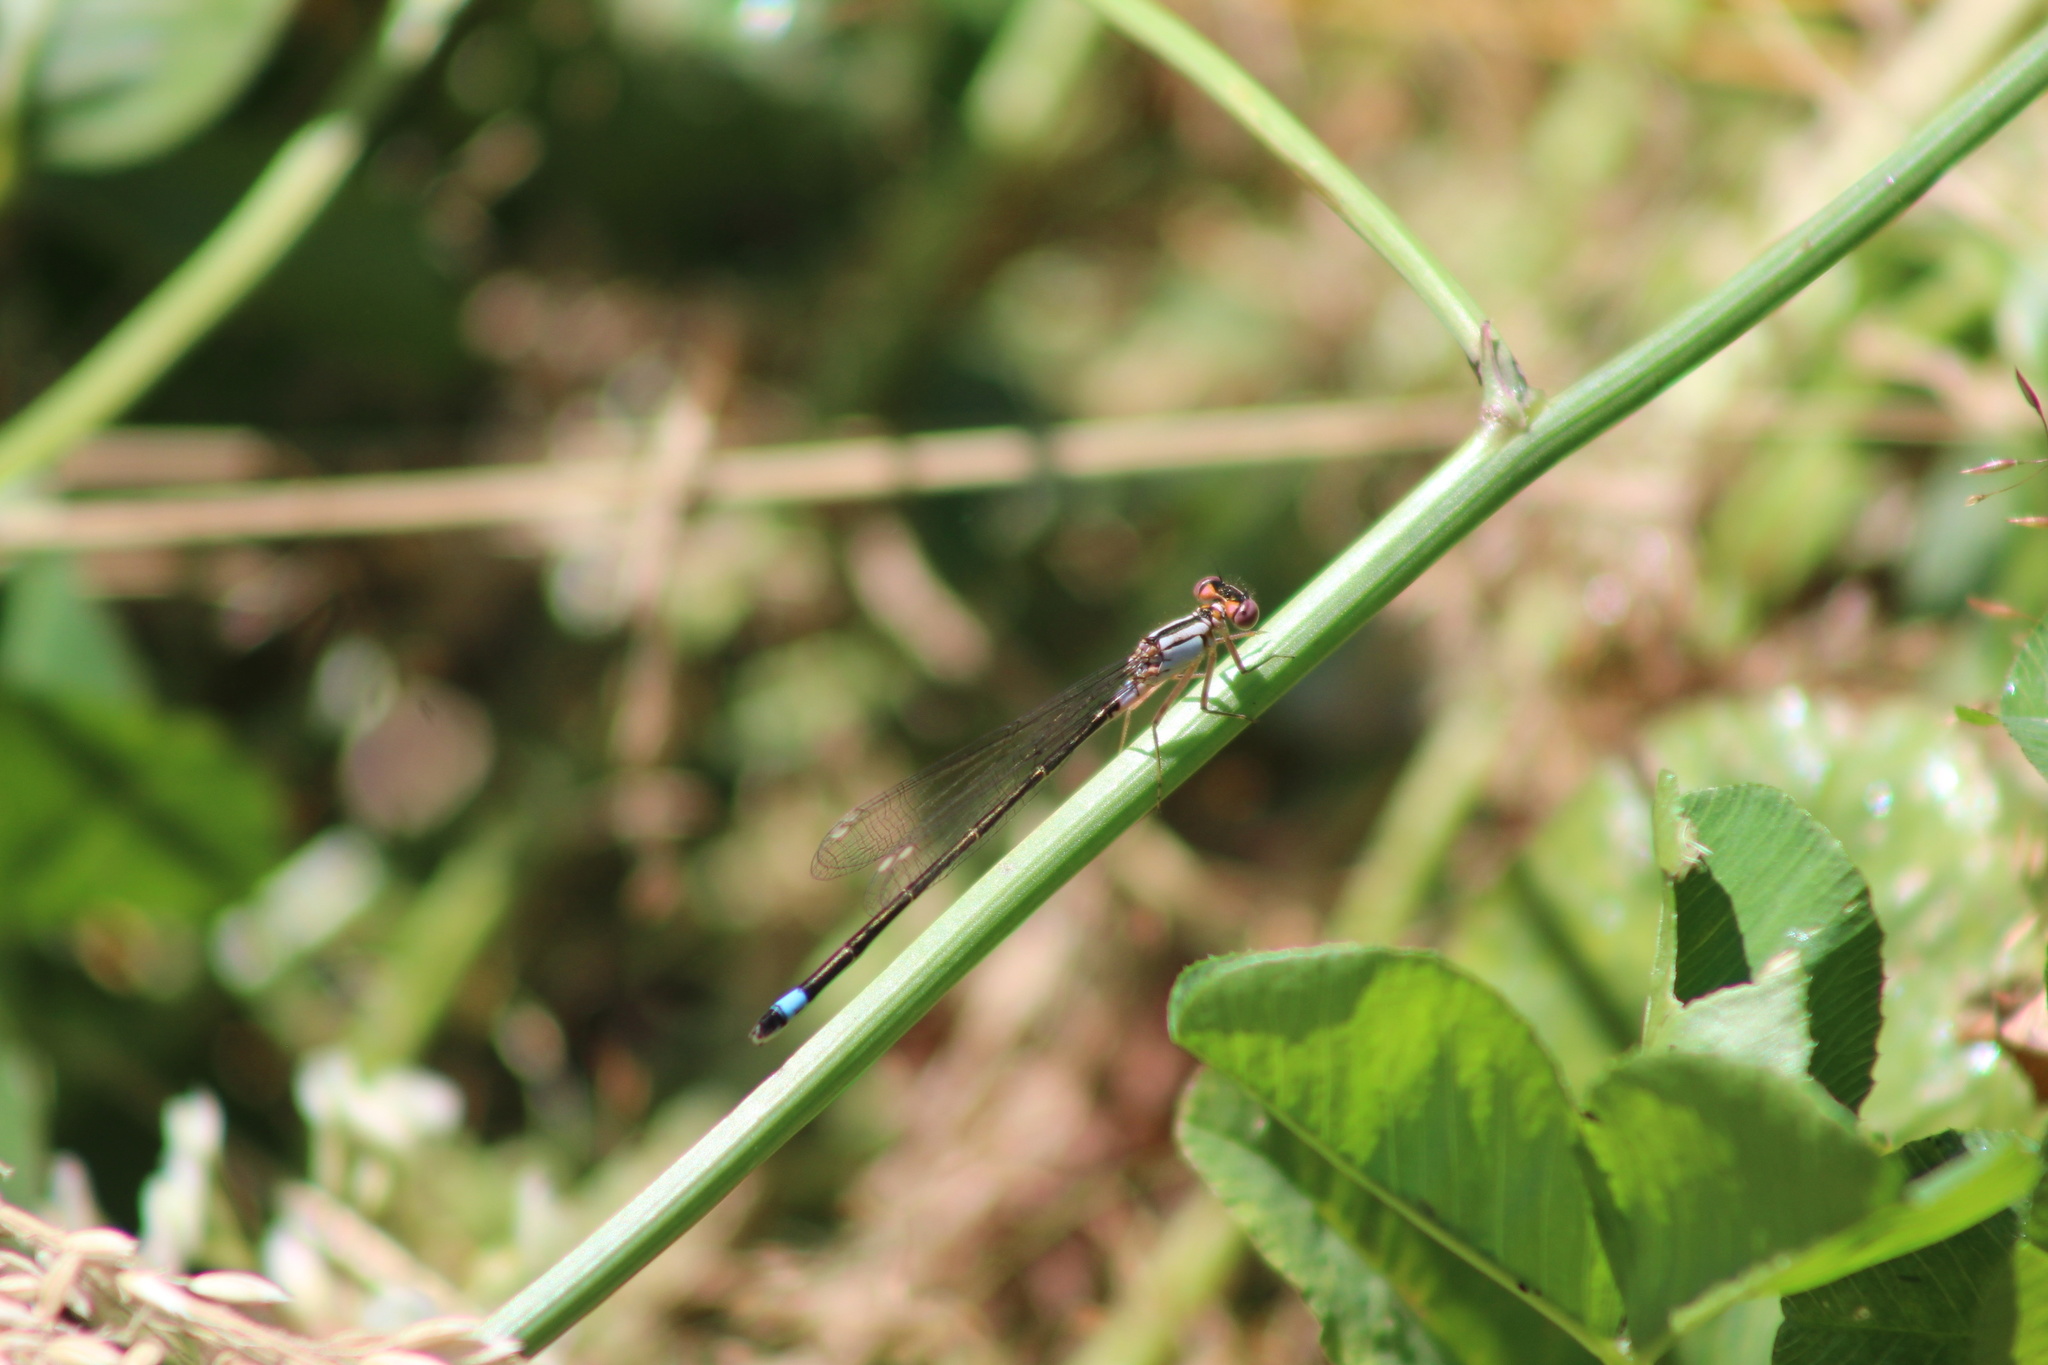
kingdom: Animalia
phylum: Arthropoda
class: Insecta
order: Odonata
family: Coenagrionidae
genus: Ischnura
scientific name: Ischnura cervula
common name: Pacific forktail
